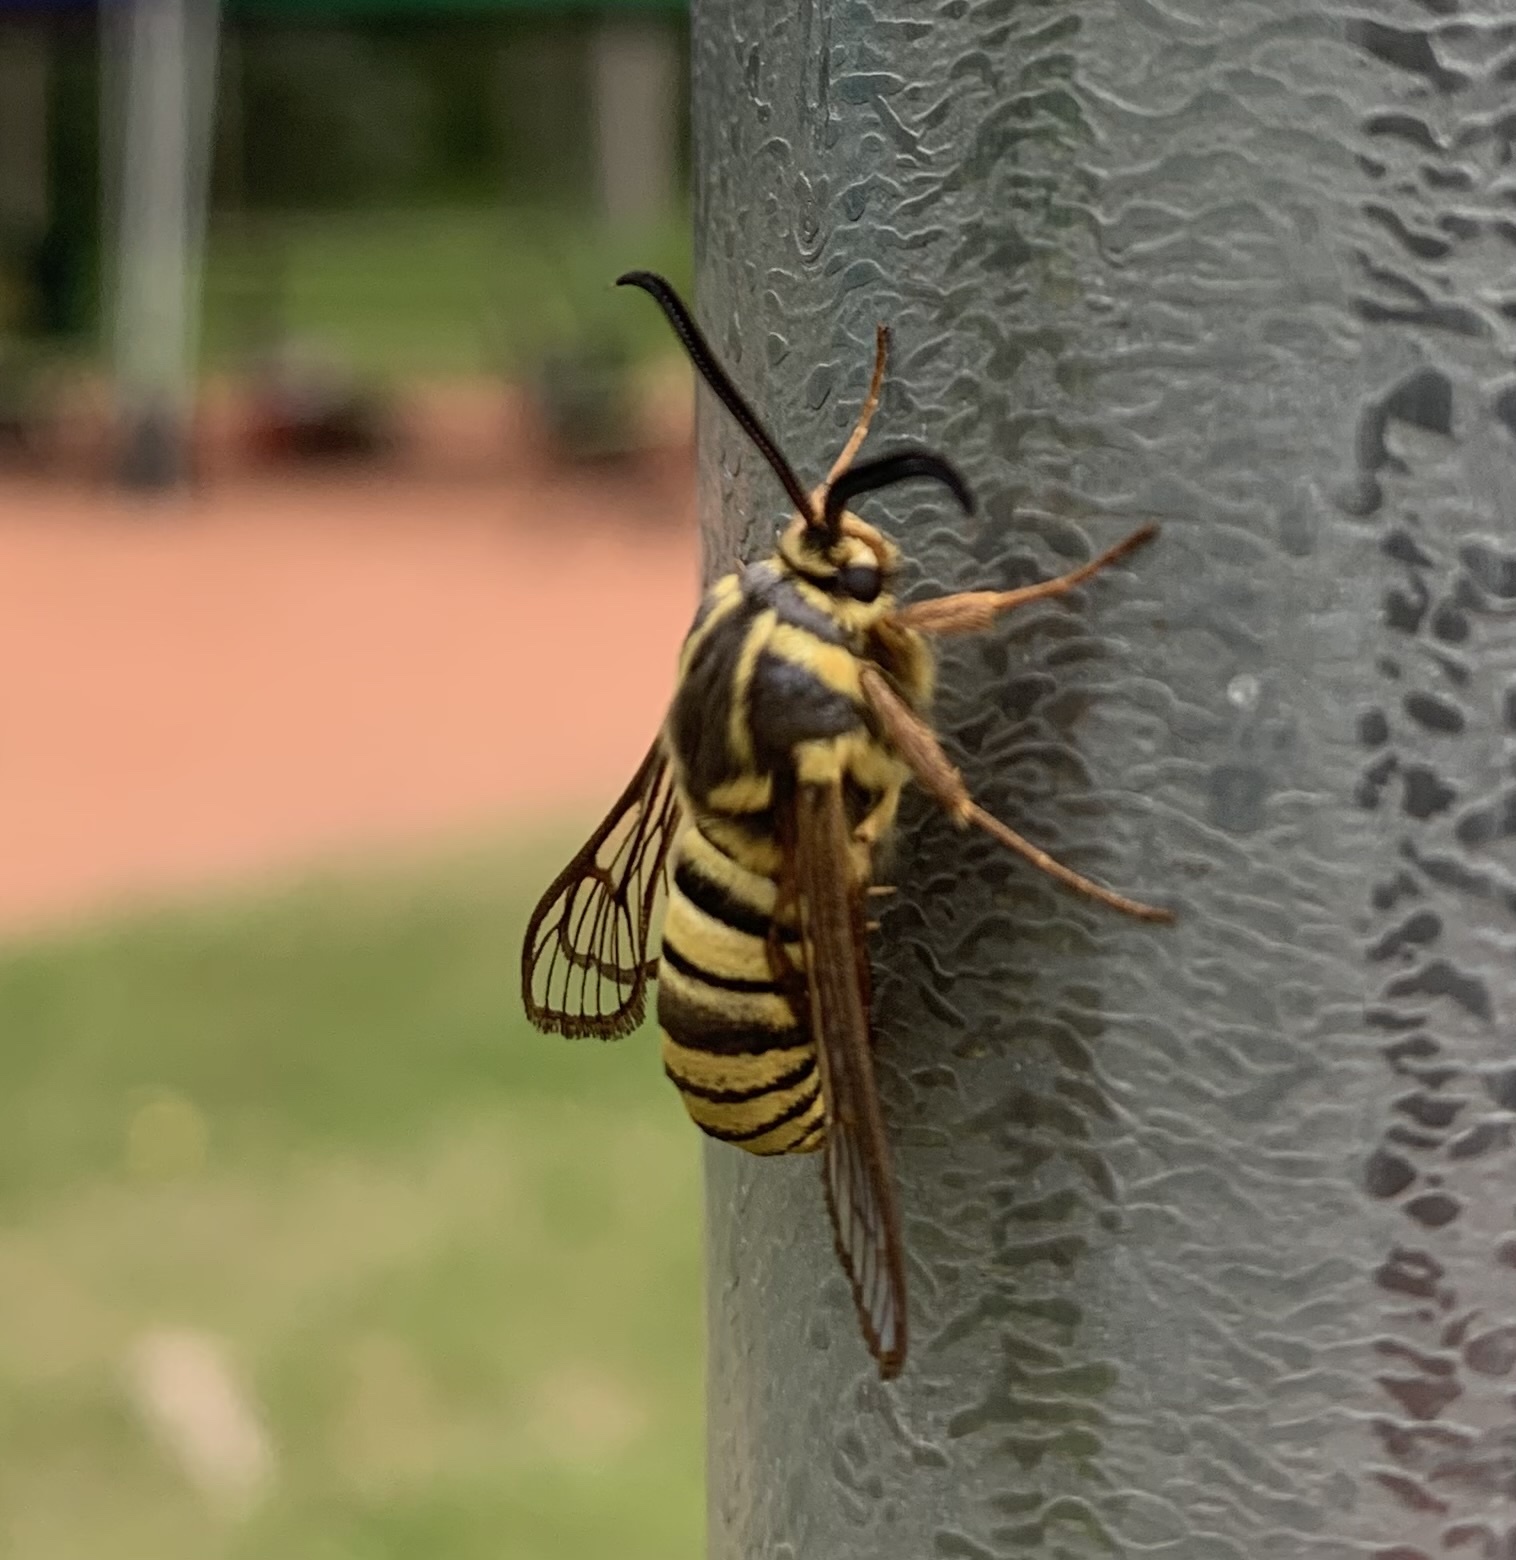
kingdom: Animalia
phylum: Arthropoda
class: Insecta
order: Lepidoptera
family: Sesiidae
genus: Sesia
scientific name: Sesia tibiale
